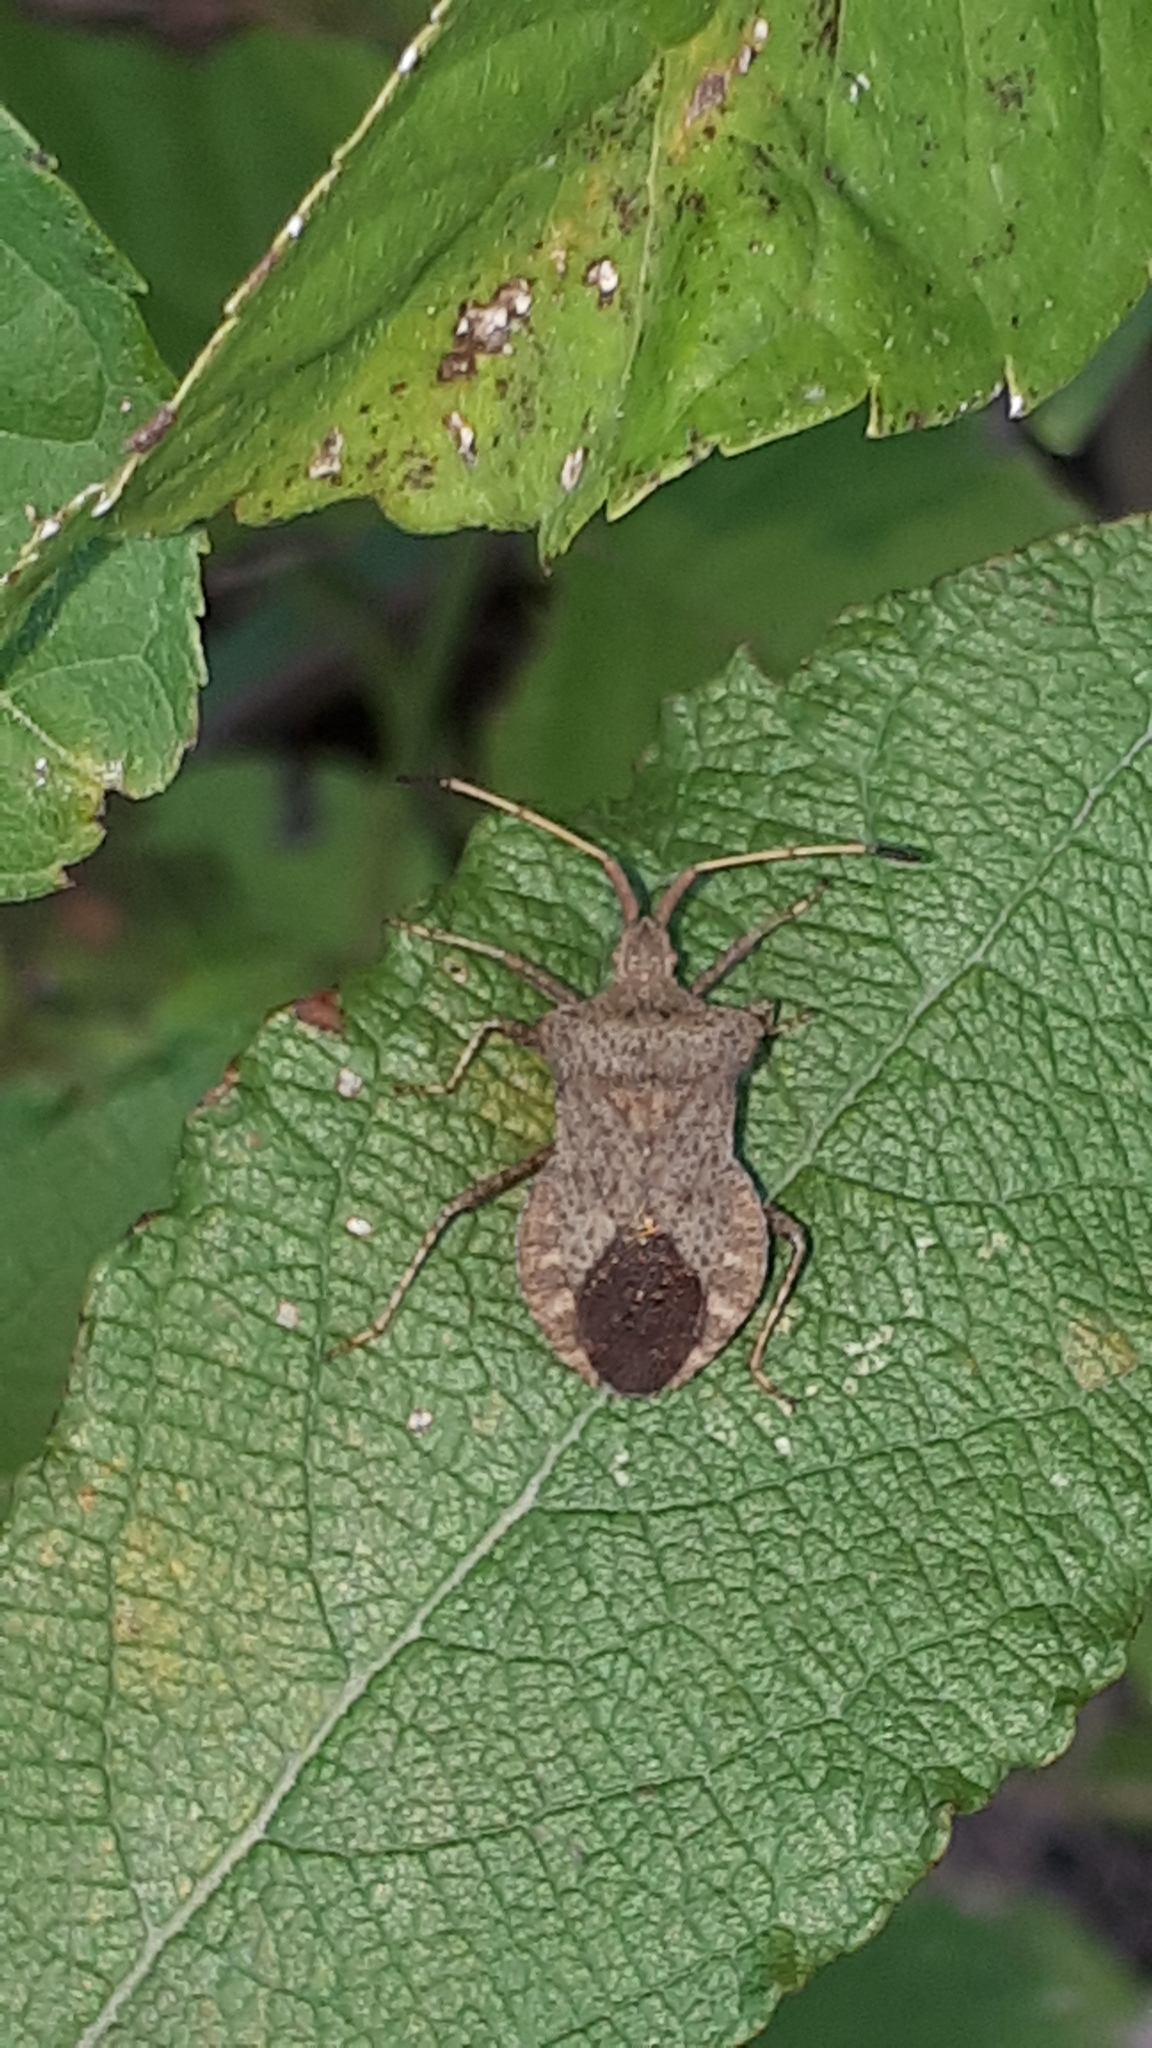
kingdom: Animalia
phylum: Arthropoda
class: Insecta
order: Hemiptera
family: Coreidae
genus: Coreus
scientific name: Coreus marginatus
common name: Dock bug
